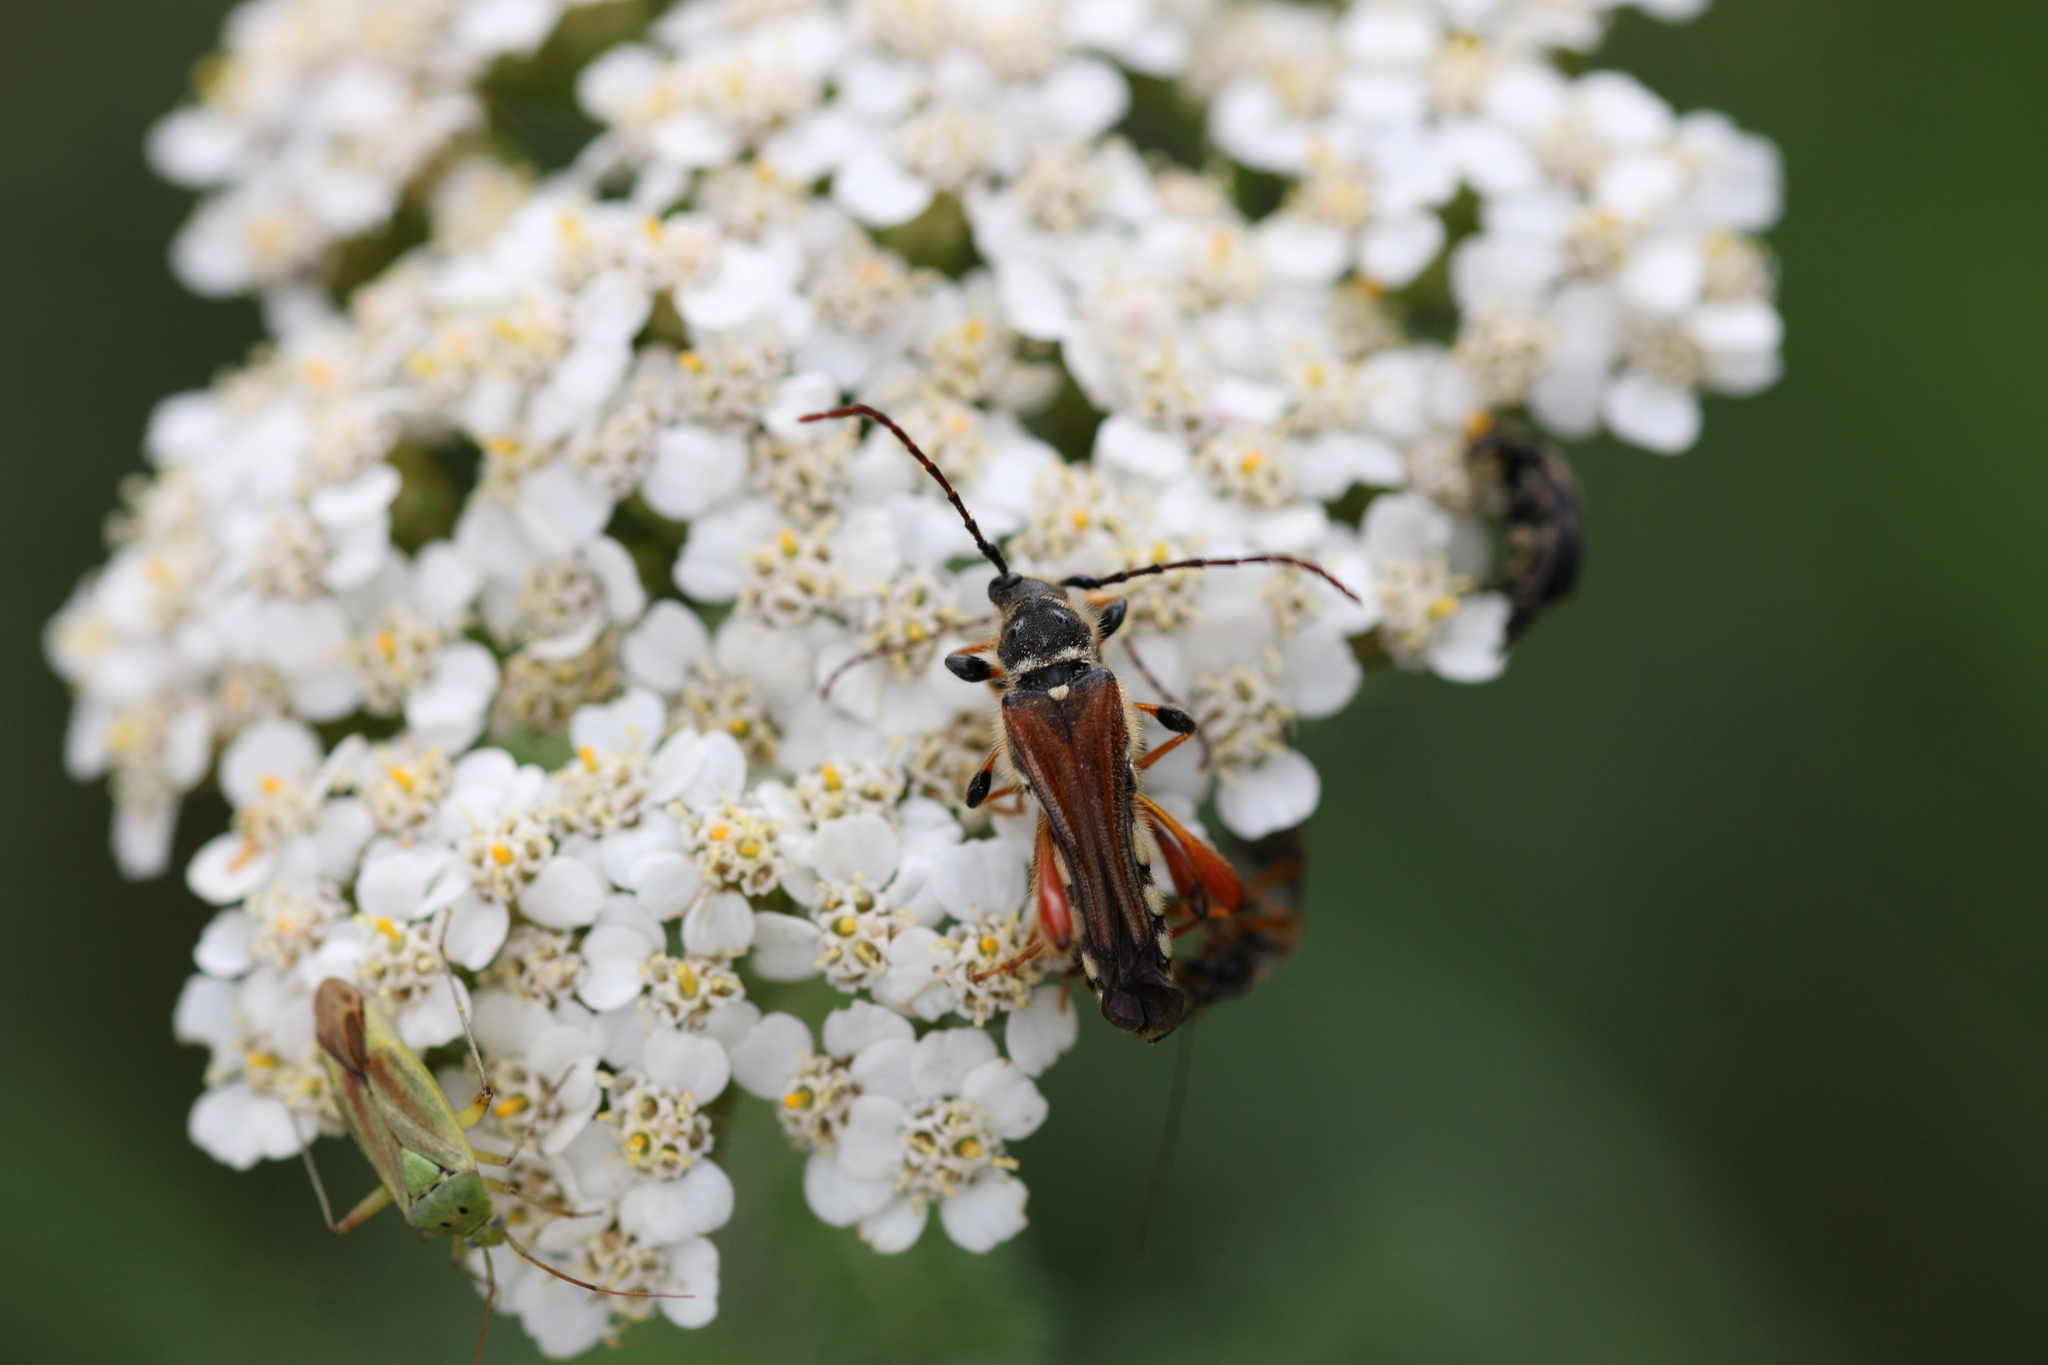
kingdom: Animalia
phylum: Arthropoda
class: Insecta
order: Coleoptera
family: Cerambycidae
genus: Stenopterus
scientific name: Stenopterus rufus
